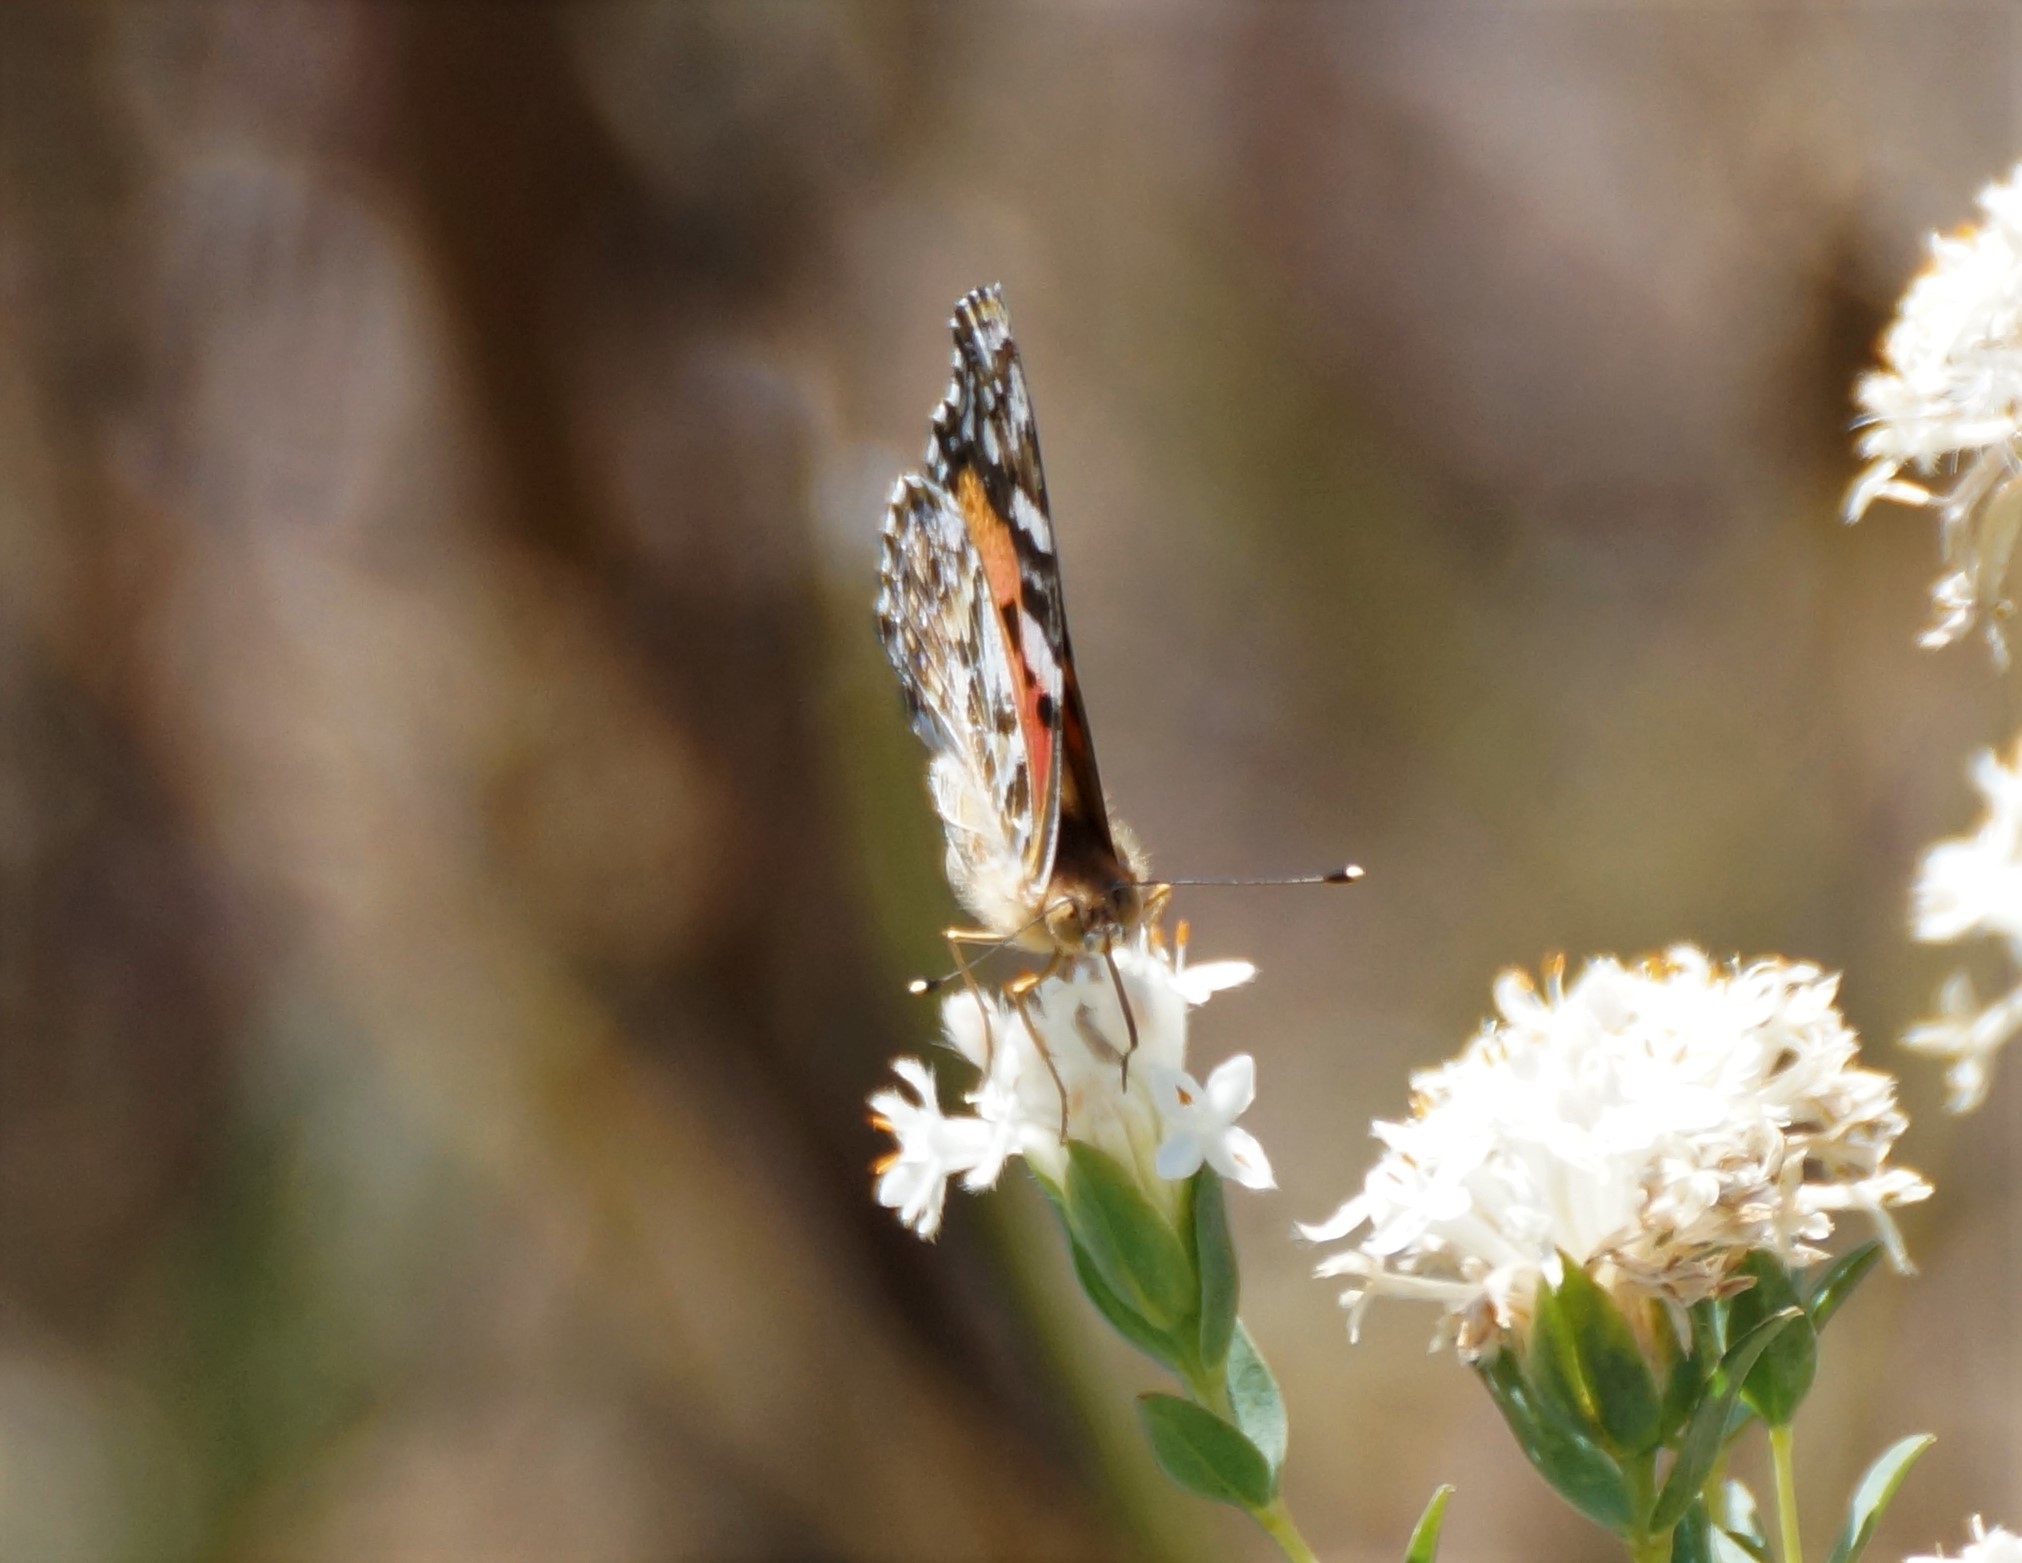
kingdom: Animalia
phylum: Arthropoda
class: Insecta
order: Lepidoptera
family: Nymphalidae
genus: Vanessa
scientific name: Vanessa kershawi
